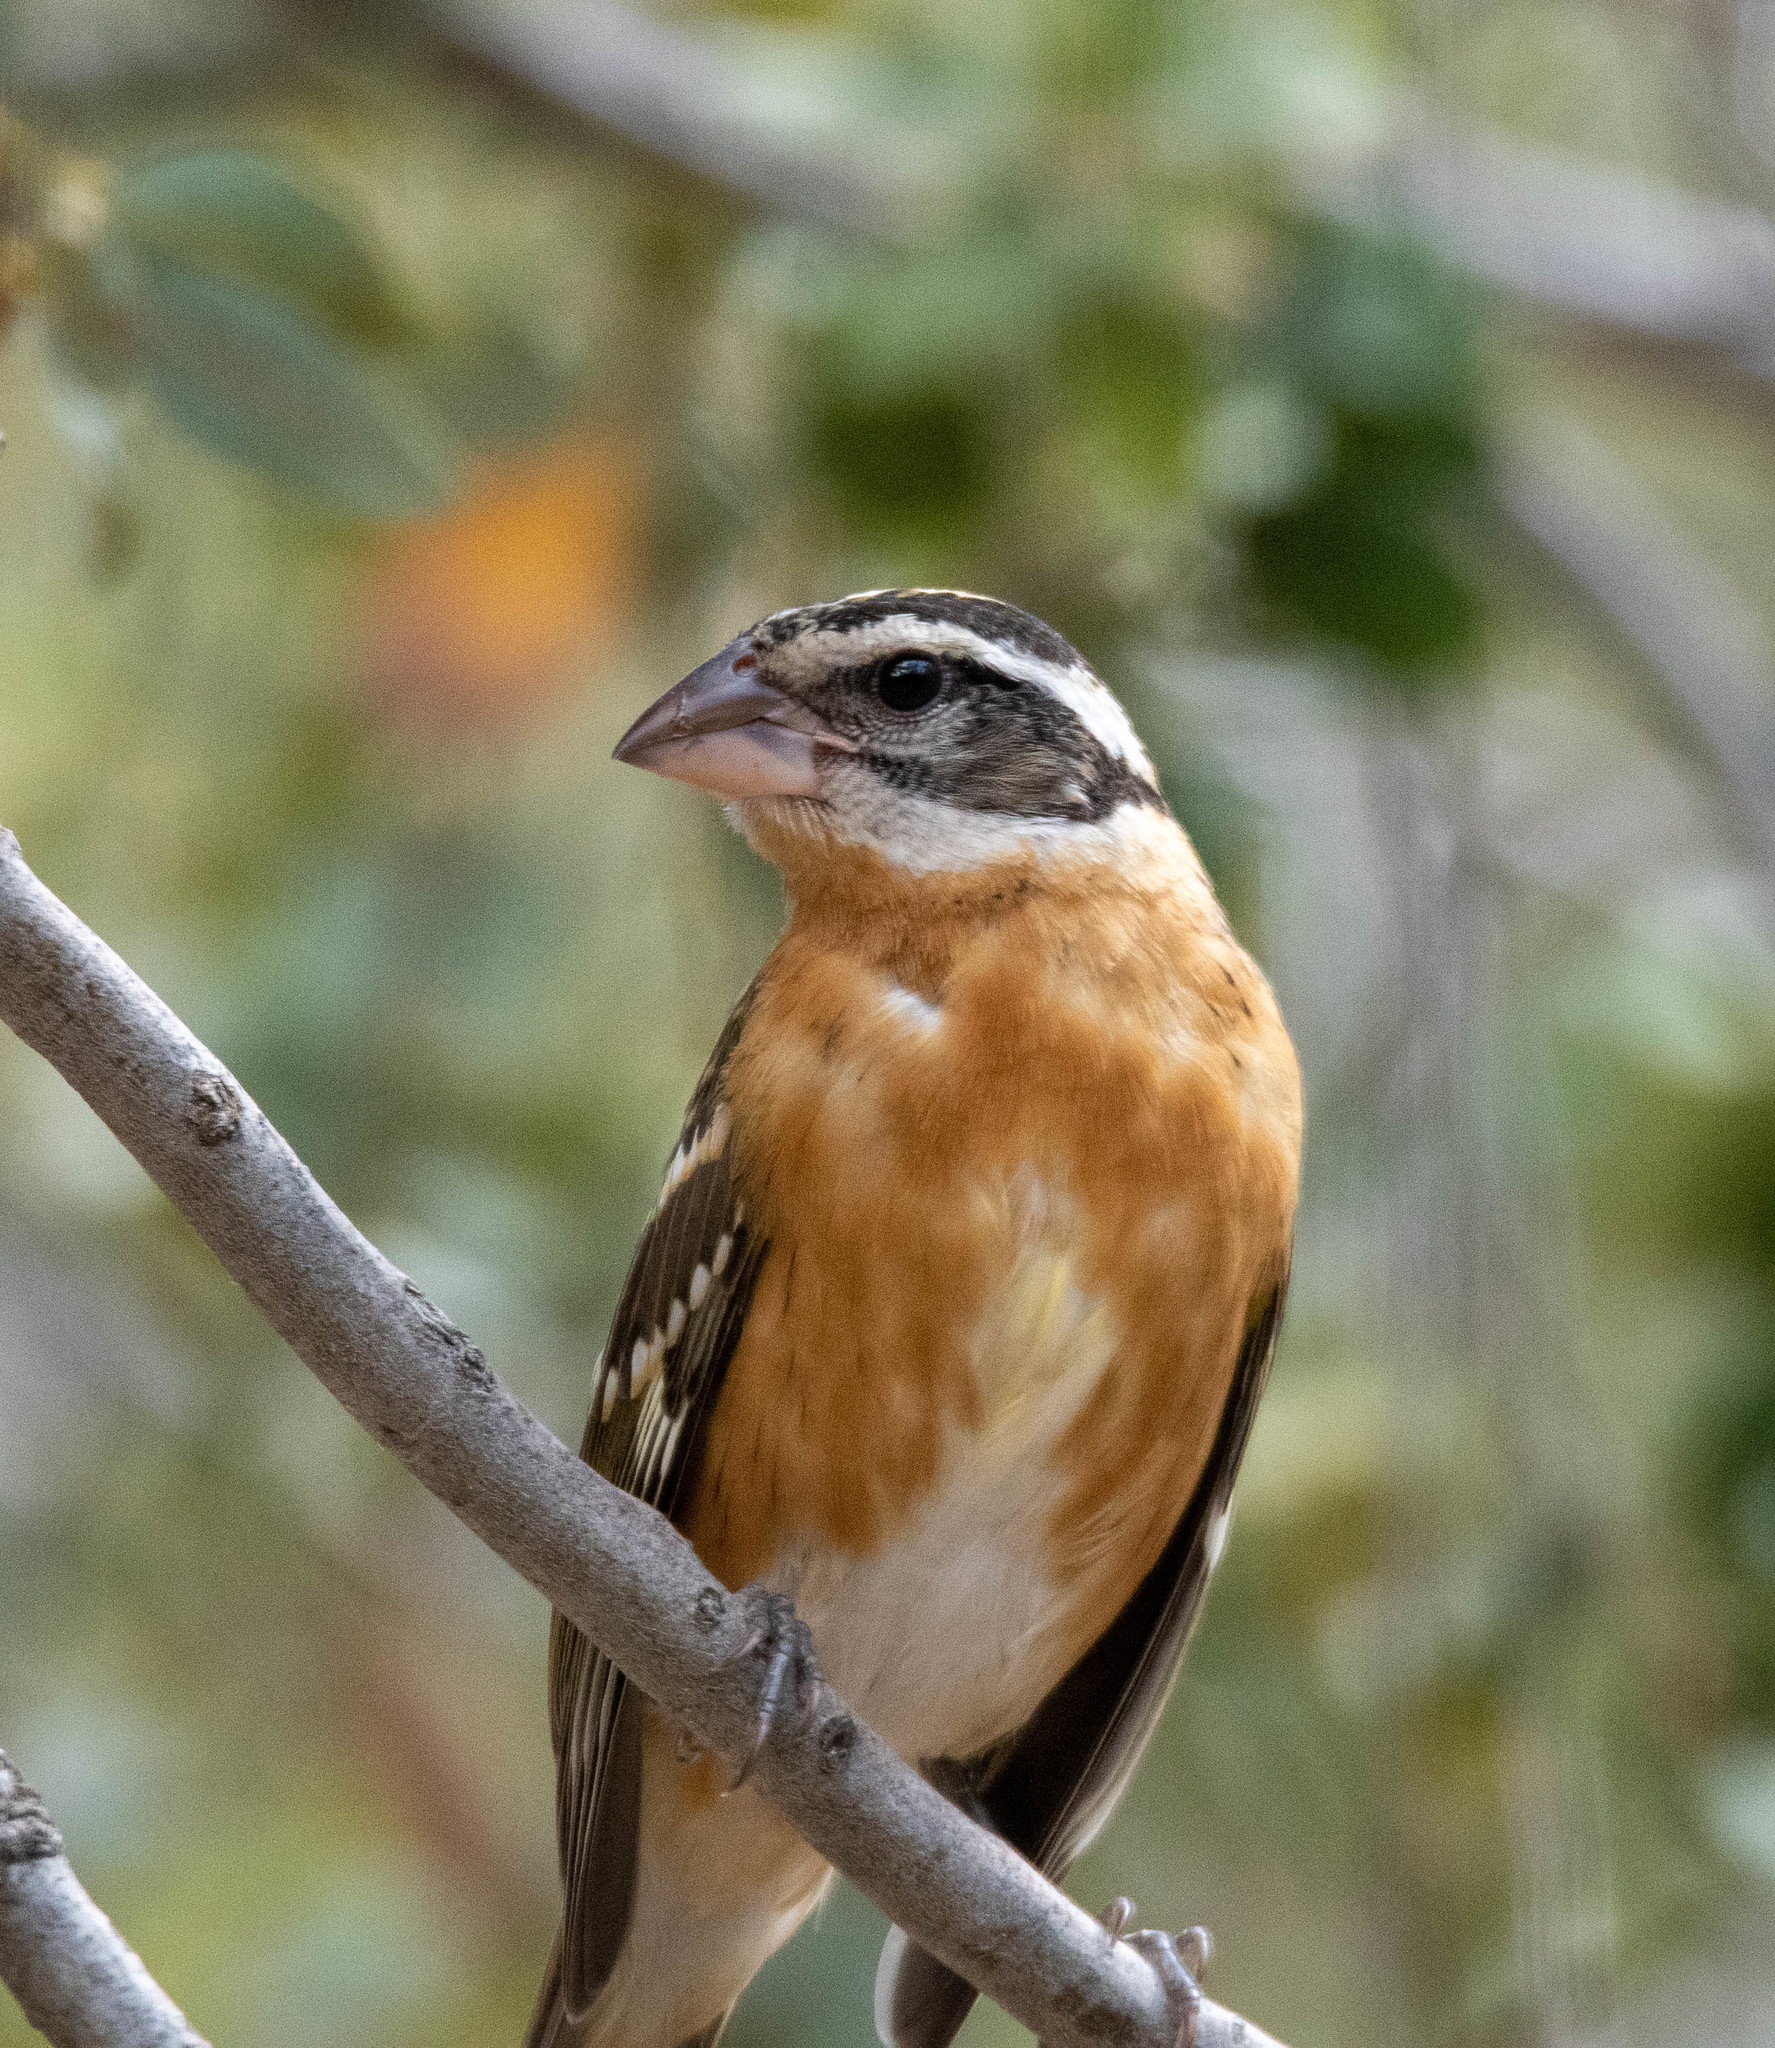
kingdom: Animalia
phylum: Chordata
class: Aves
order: Passeriformes
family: Cardinalidae
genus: Pheucticus
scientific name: Pheucticus melanocephalus
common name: Black-headed grosbeak
